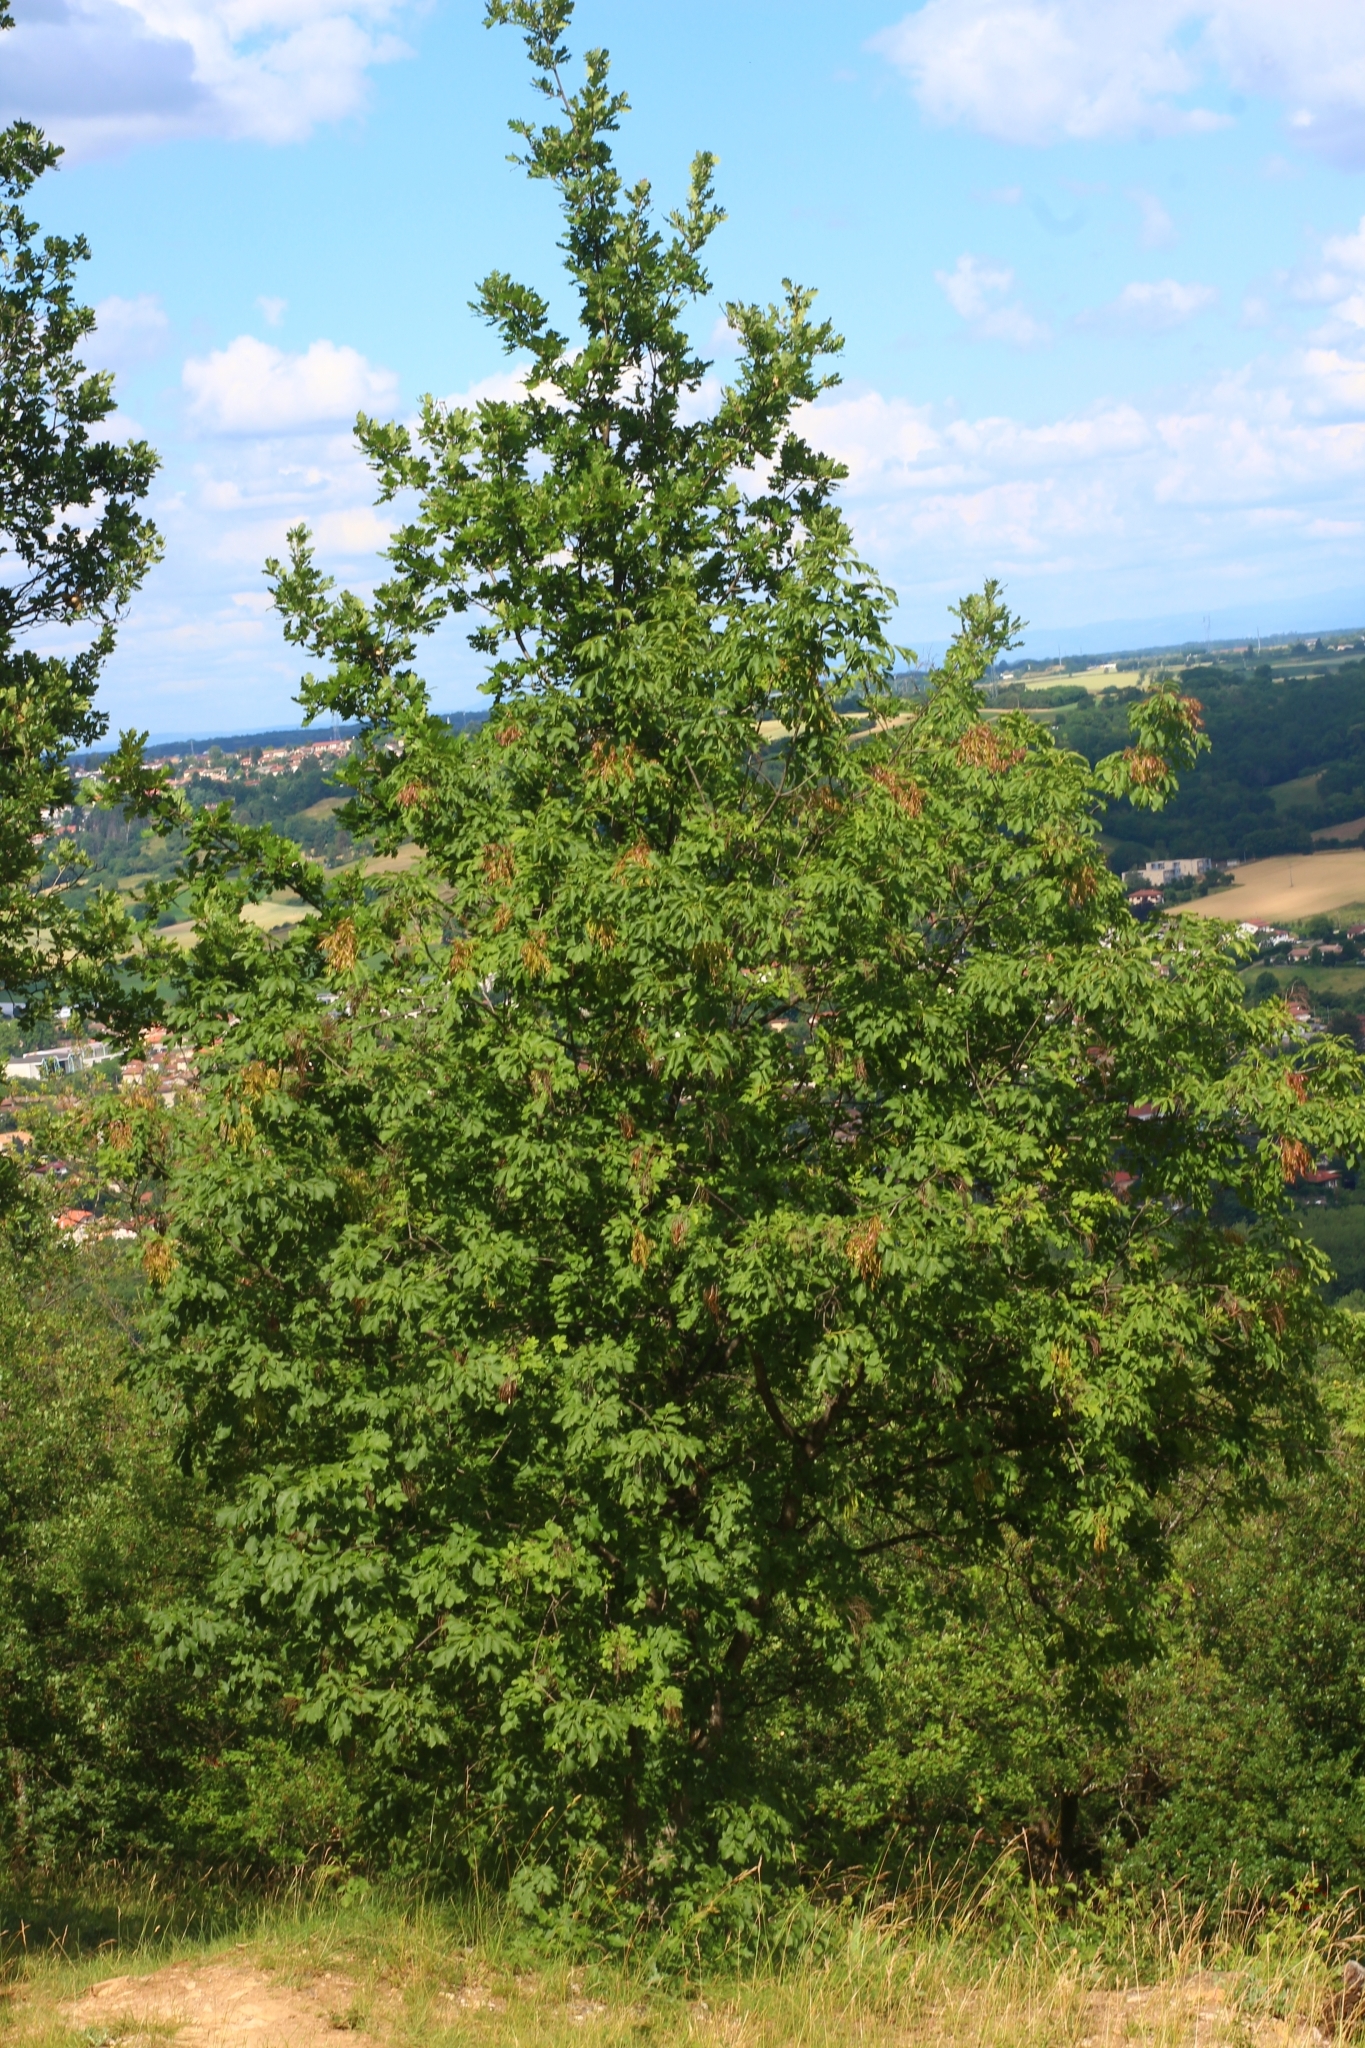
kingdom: Plantae
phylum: Tracheophyta
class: Magnoliopsida
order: Lamiales
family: Oleaceae
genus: Fraxinus
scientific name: Fraxinus ornus
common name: Manna ash
